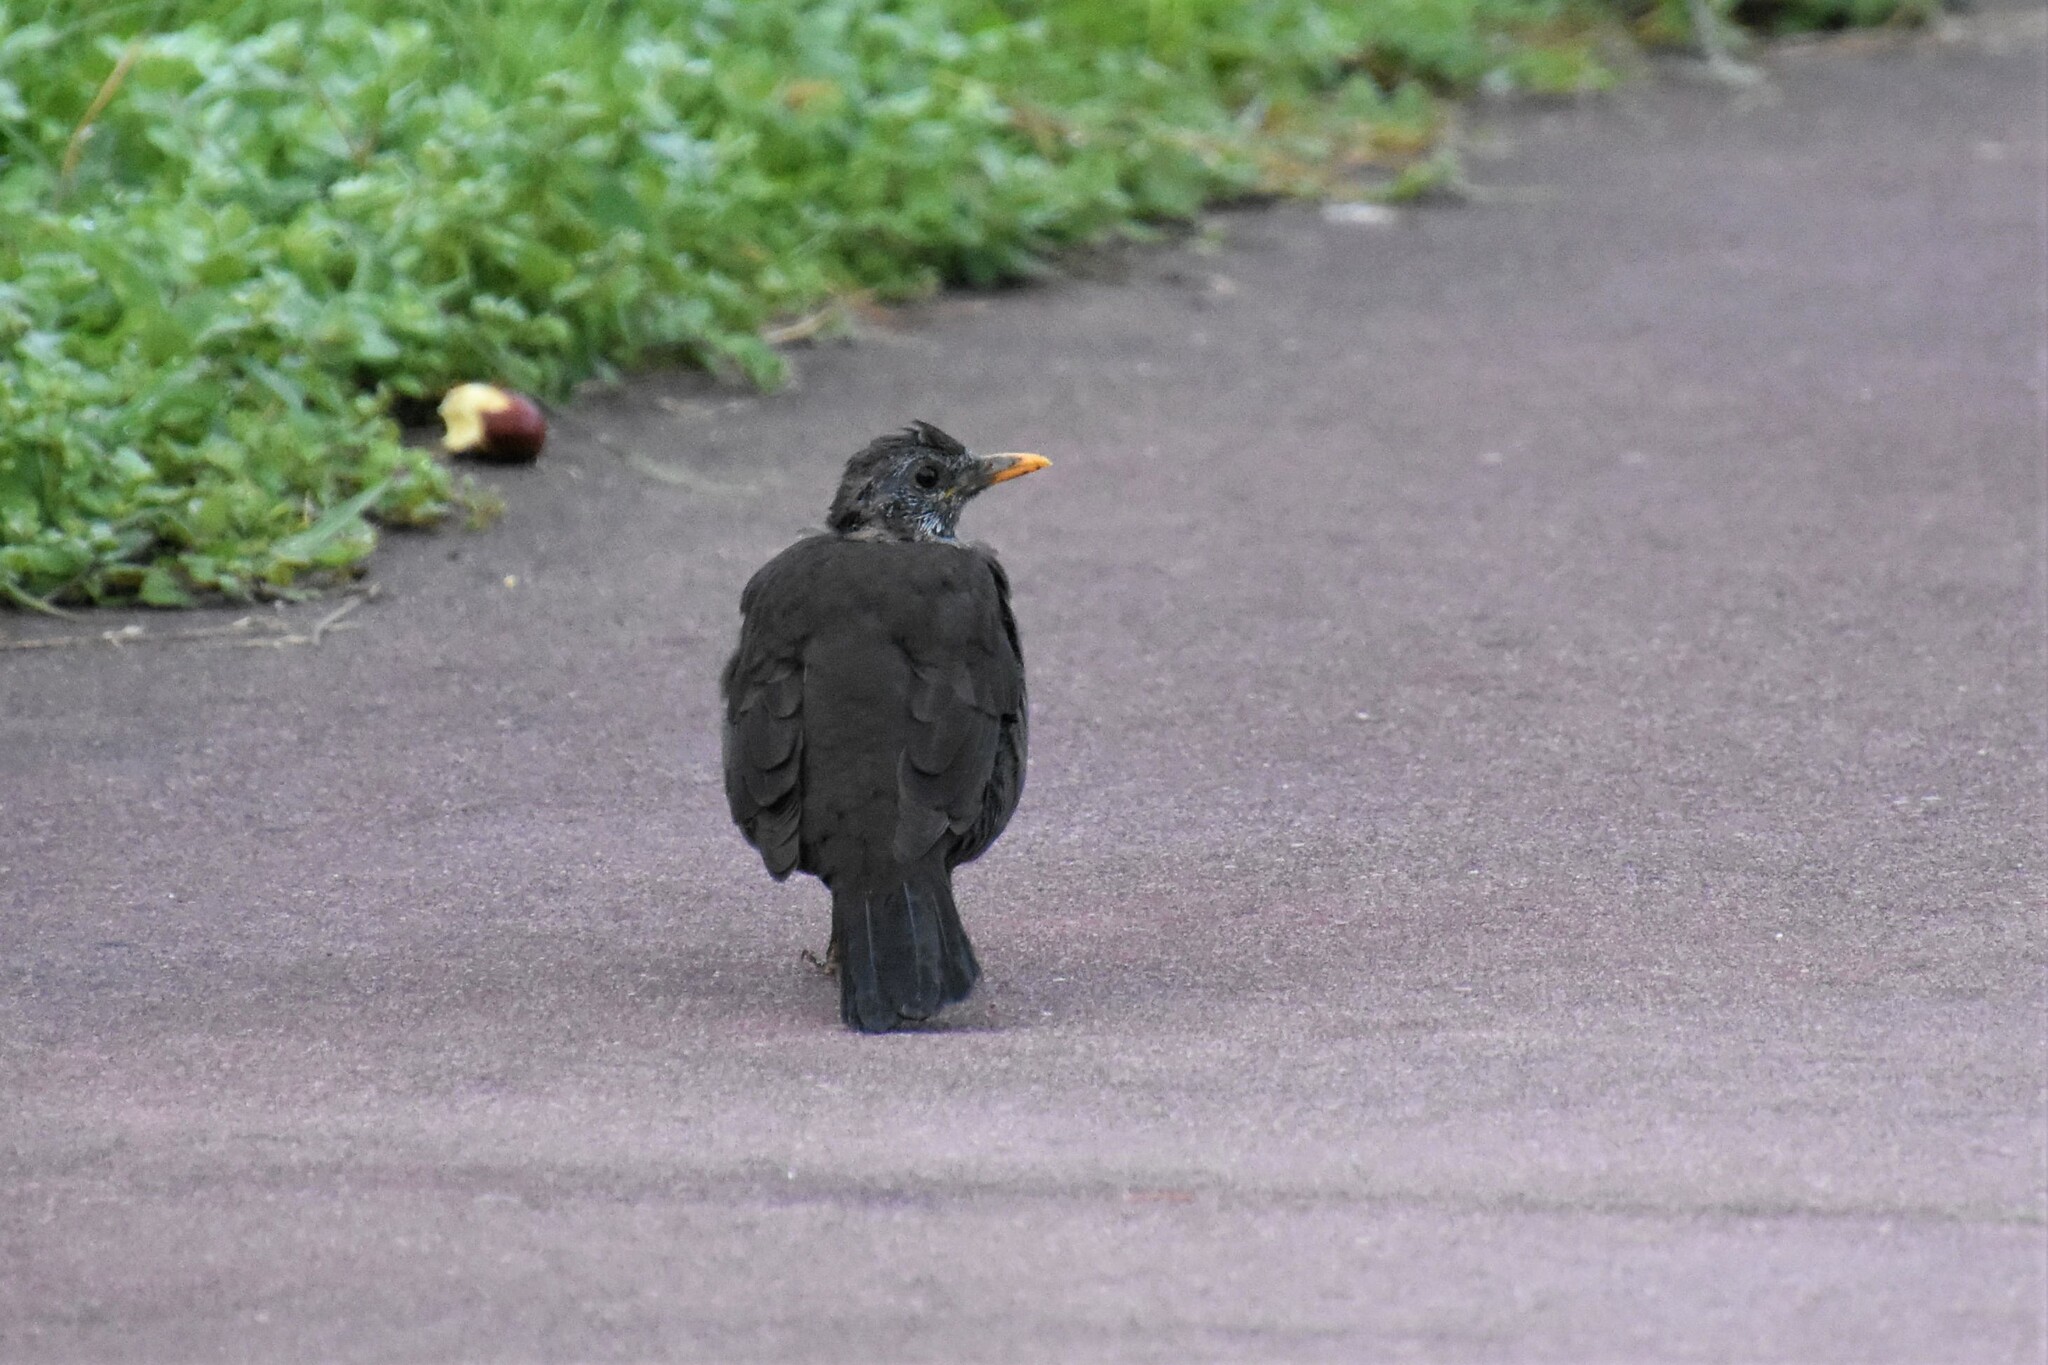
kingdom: Animalia
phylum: Chordata
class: Aves
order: Passeriformes
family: Turdidae
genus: Turdus
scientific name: Turdus merula
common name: Common blackbird
